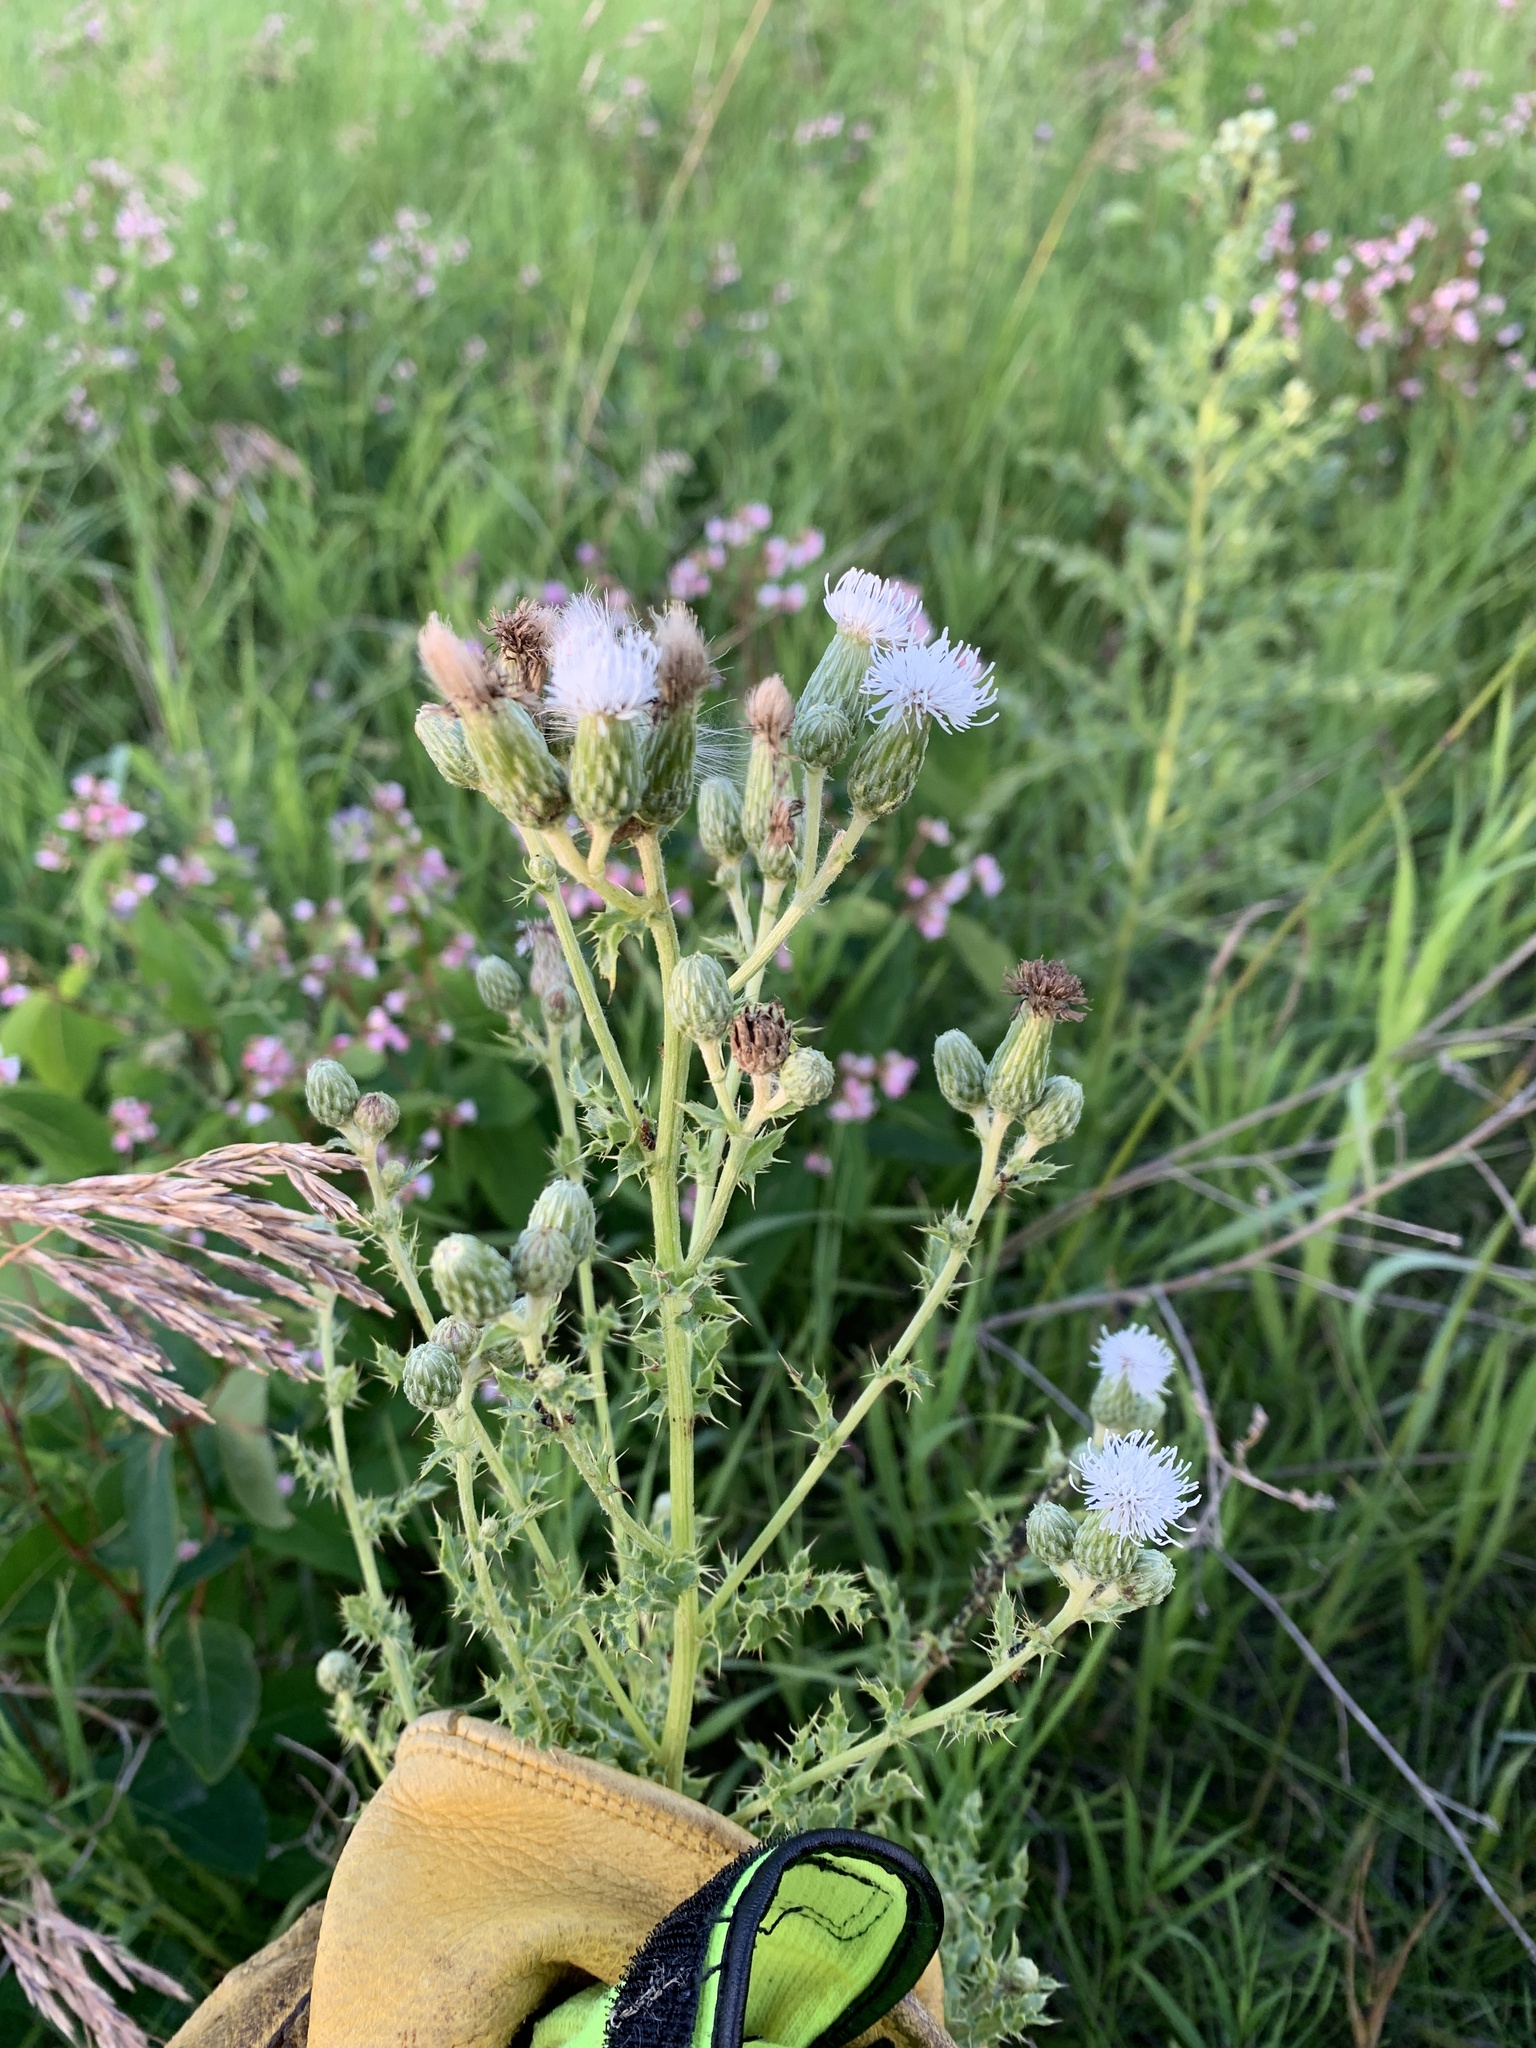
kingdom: Plantae
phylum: Tracheophyta
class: Magnoliopsida
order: Asterales
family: Asteraceae
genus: Cirsium
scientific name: Cirsium arvense
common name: Creeping thistle
